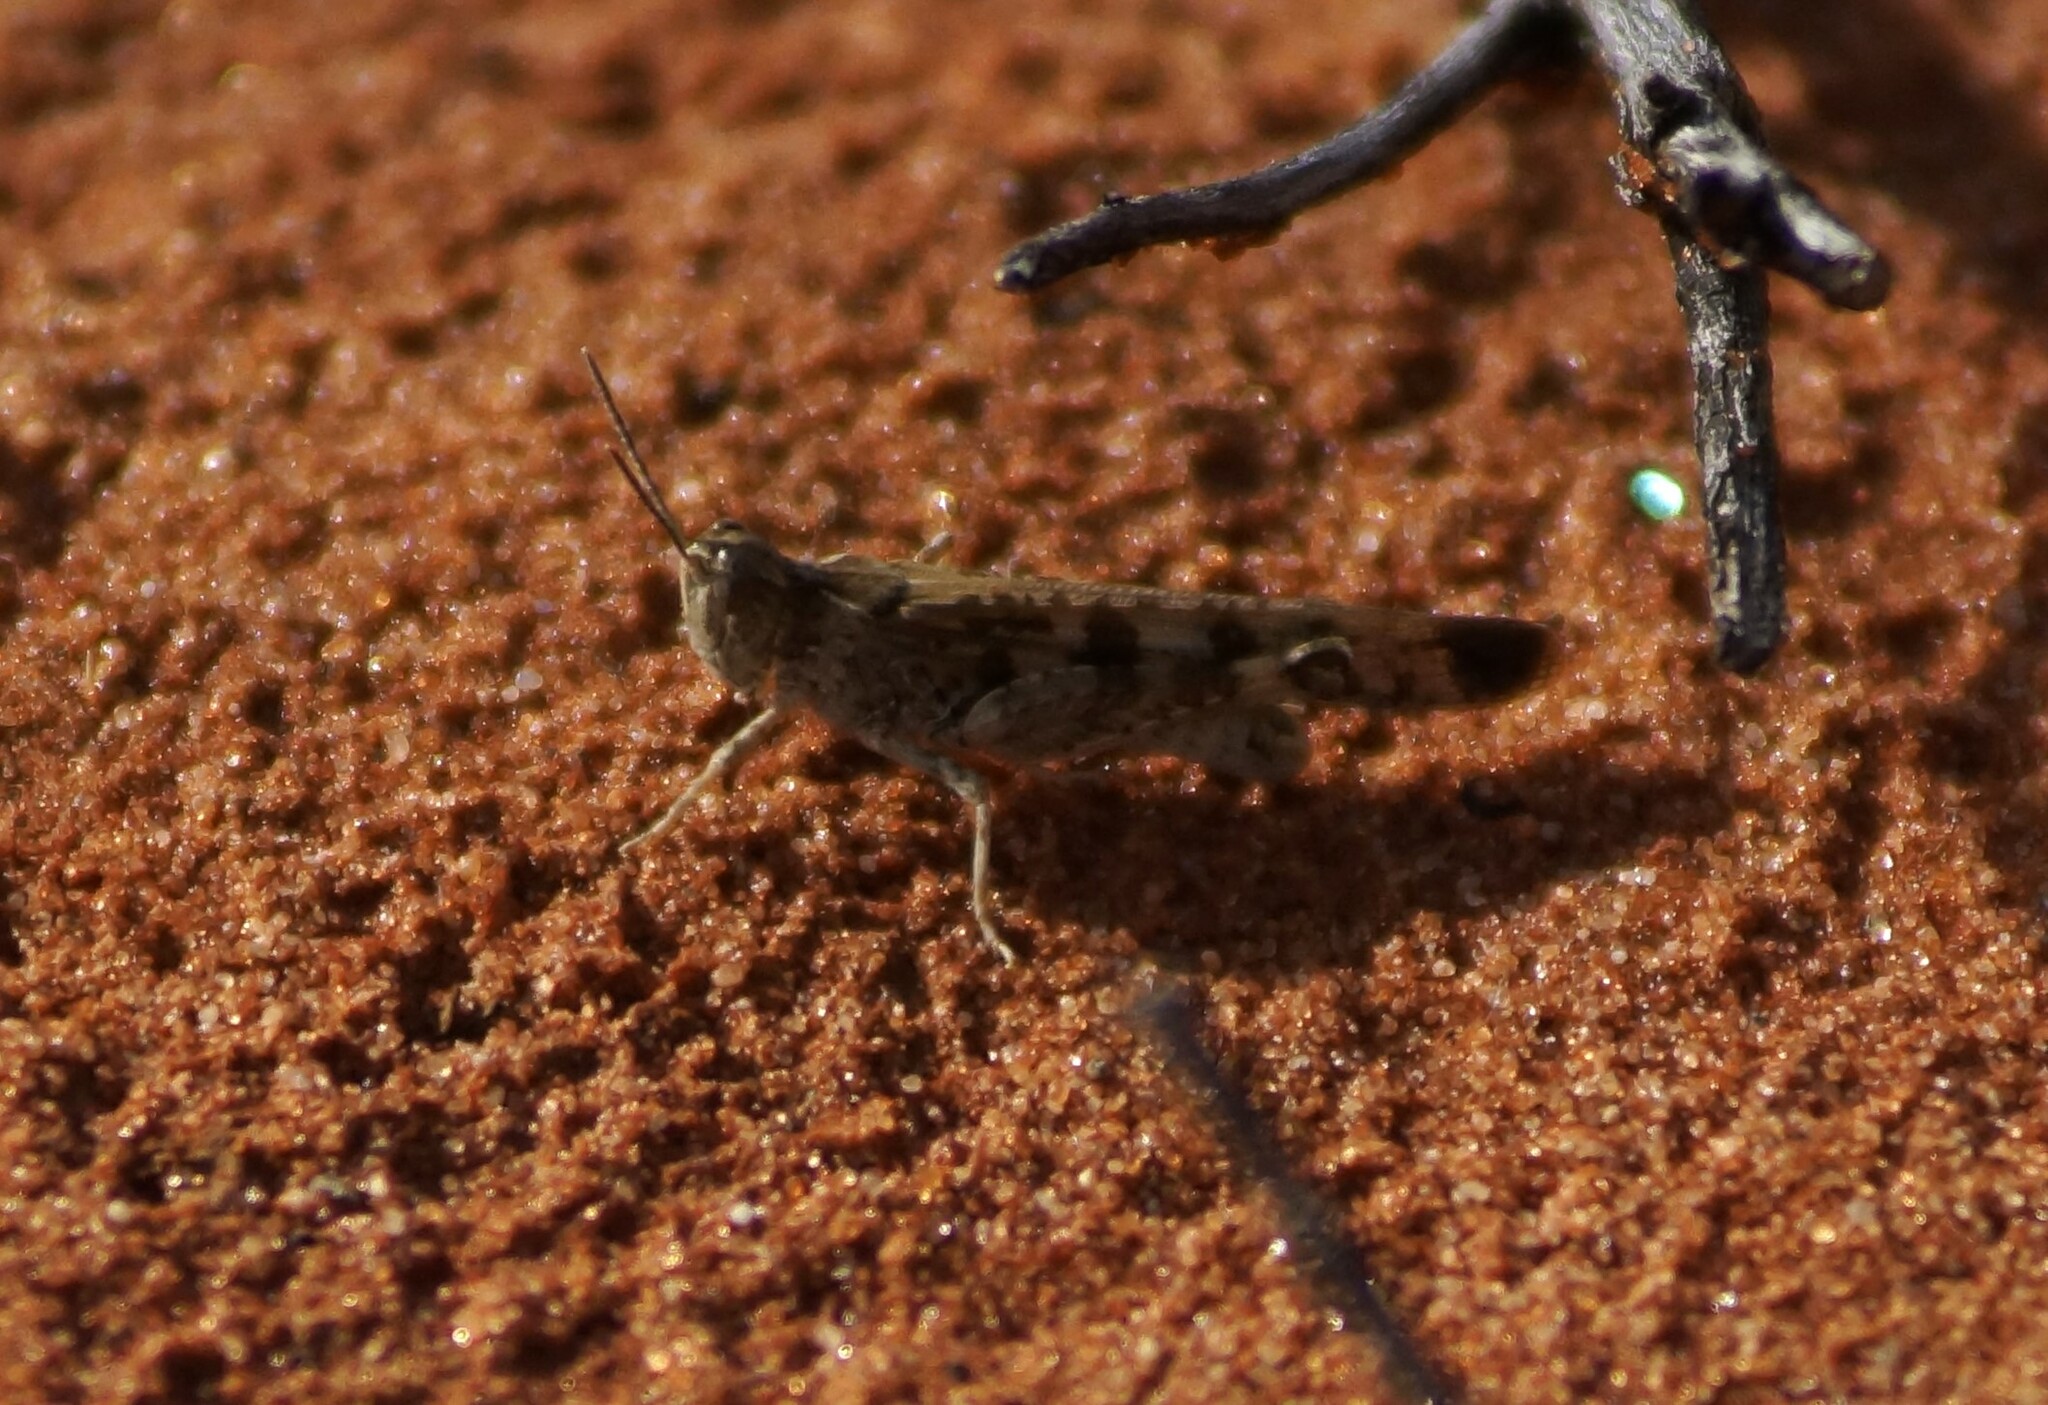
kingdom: Animalia
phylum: Arthropoda
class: Insecta
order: Orthoptera
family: Acrididae
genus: Chortoicetes
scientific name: Chortoicetes terminifera
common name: Australian plague locust
